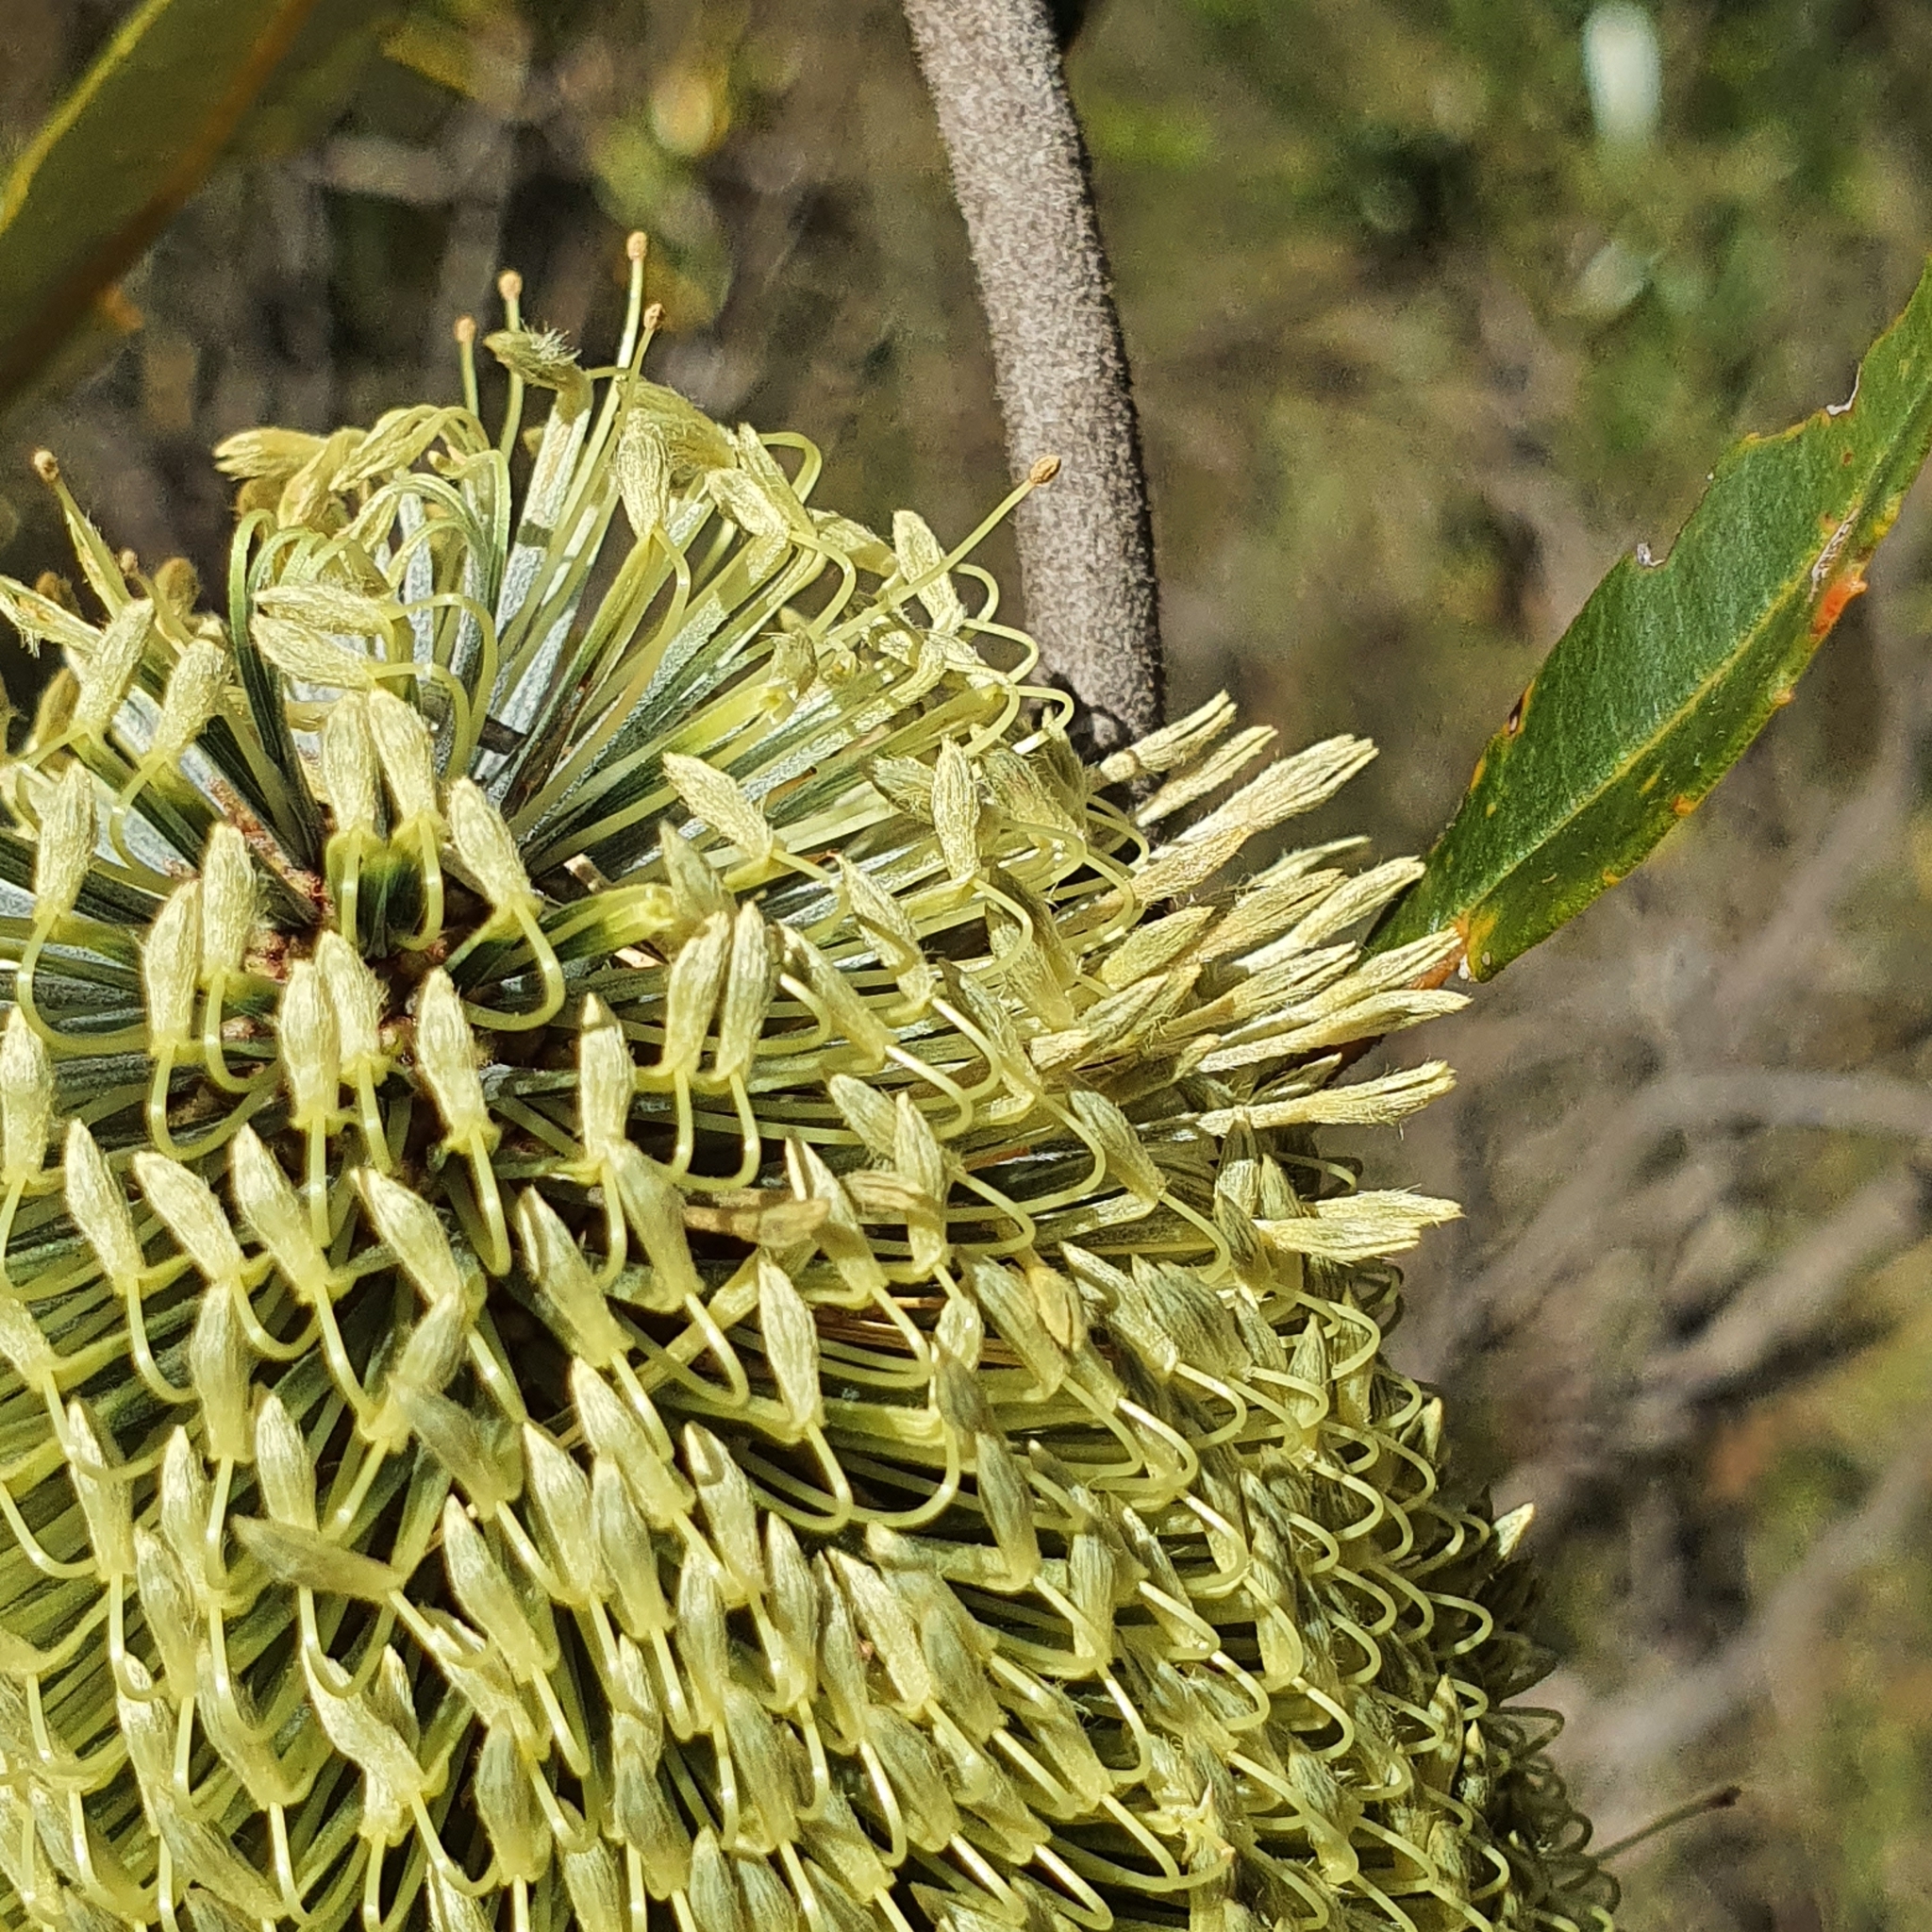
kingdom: Plantae
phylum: Tracheophyta
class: Magnoliopsida
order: Proteales
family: Proteaceae
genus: Banksia
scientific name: Banksia integrifolia
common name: White-honeysuckle
